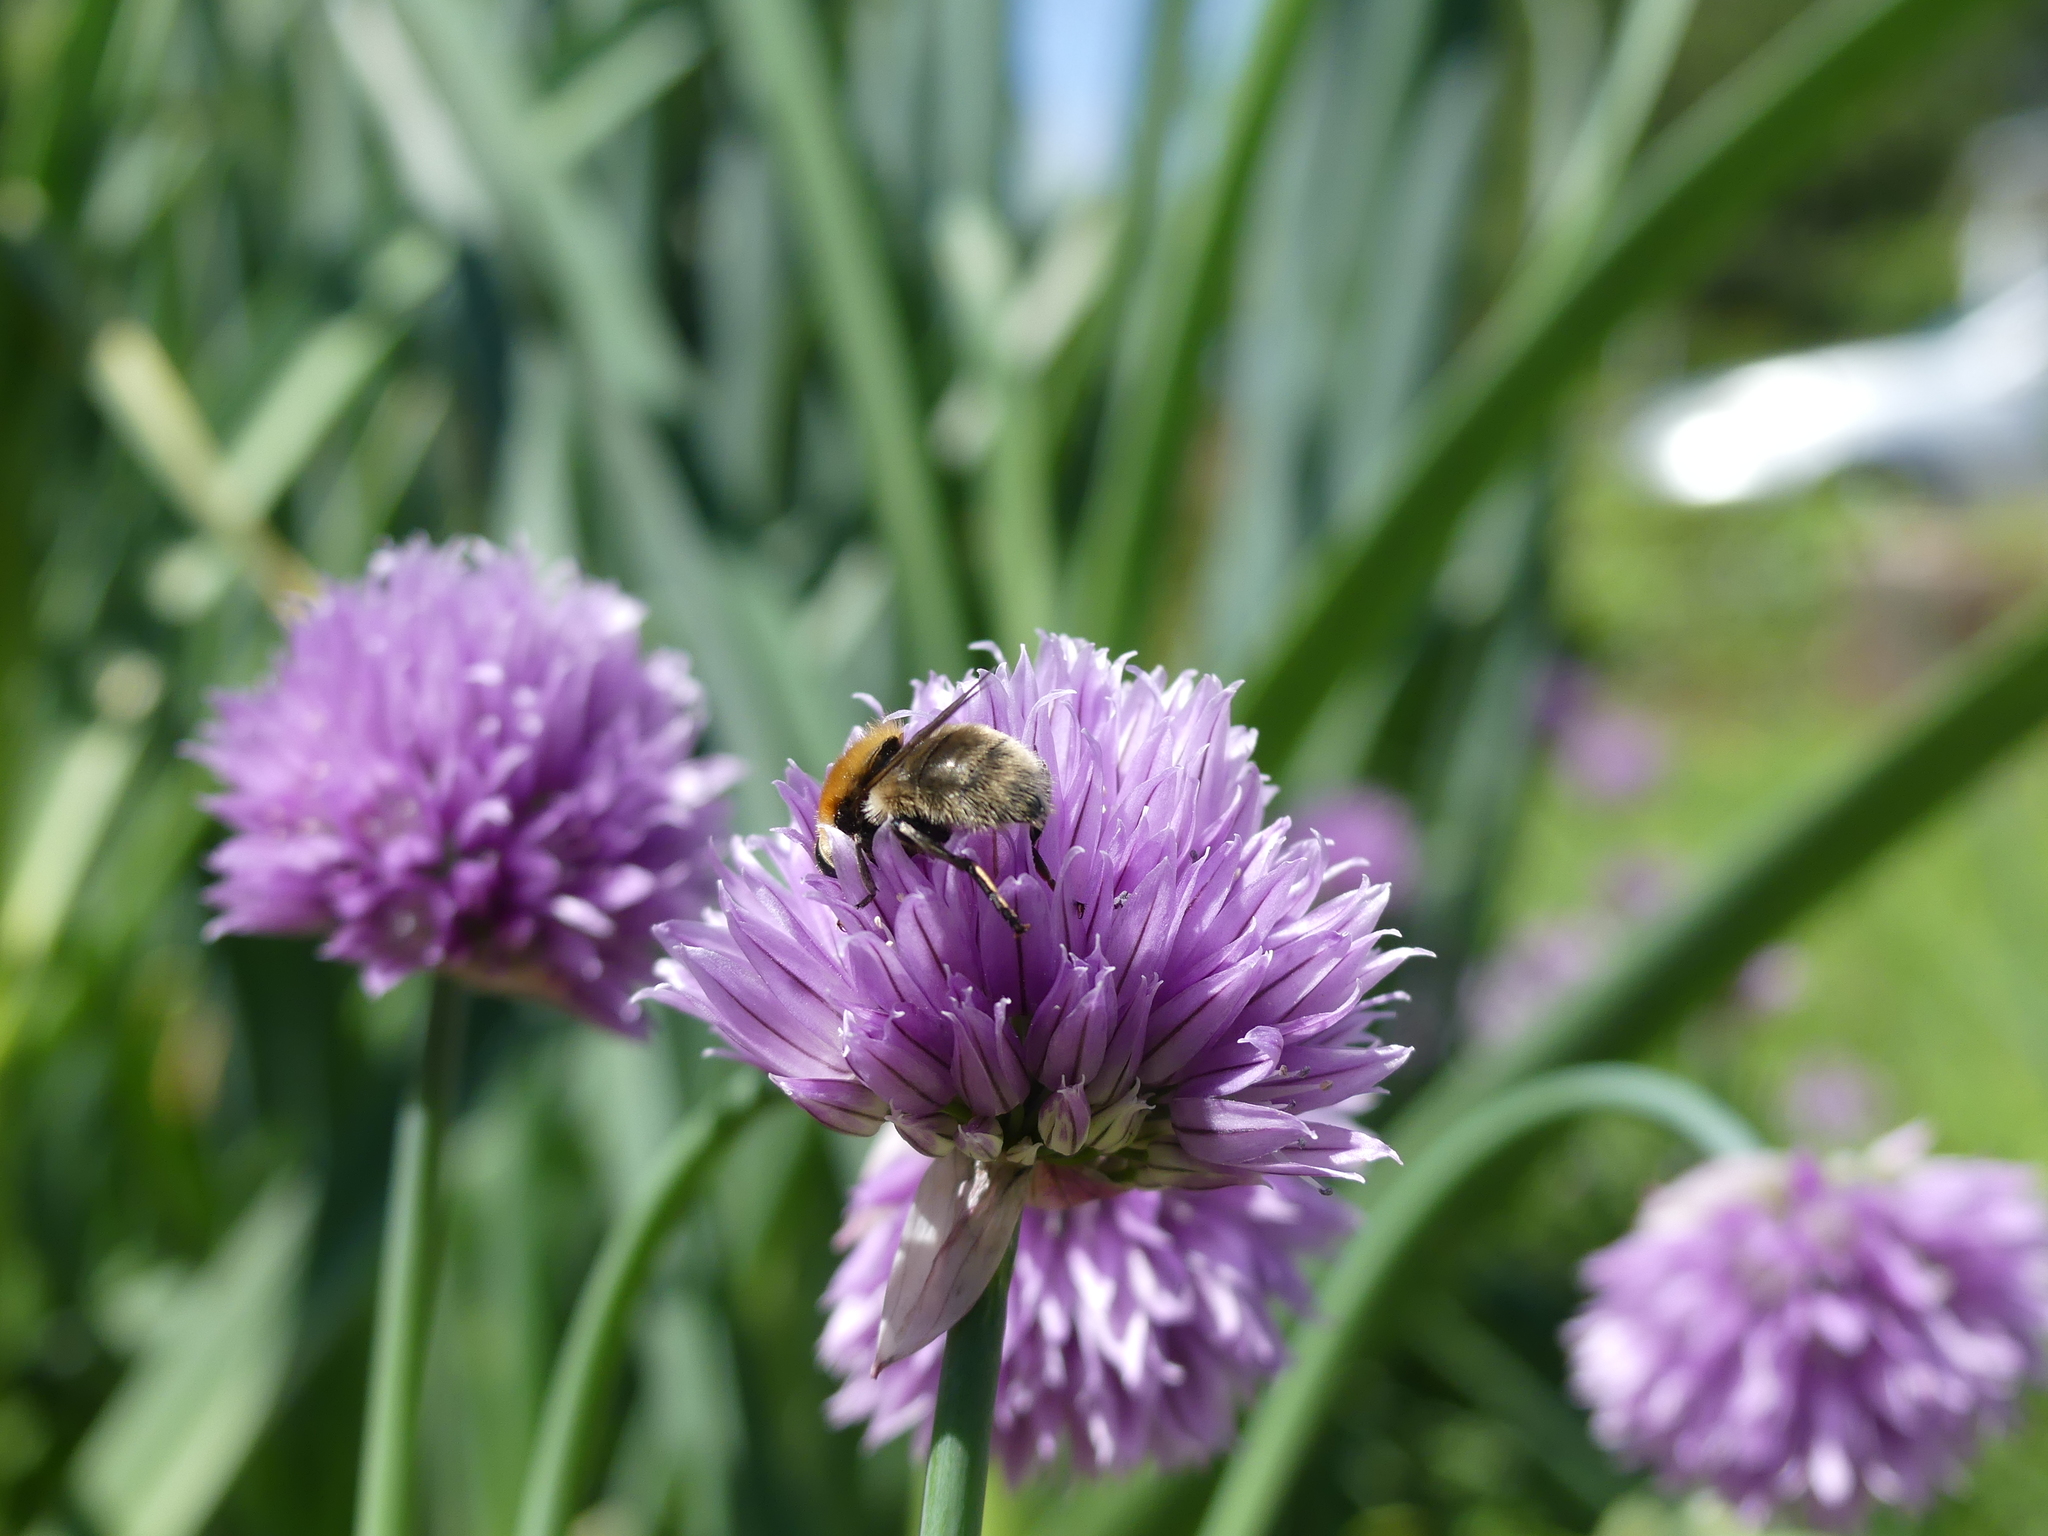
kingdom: Animalia
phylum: Arthropoda
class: Insecta
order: Diptera
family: Syrphidae
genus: Merodon
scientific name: Merodon equestris
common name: Greater bulb-fly
